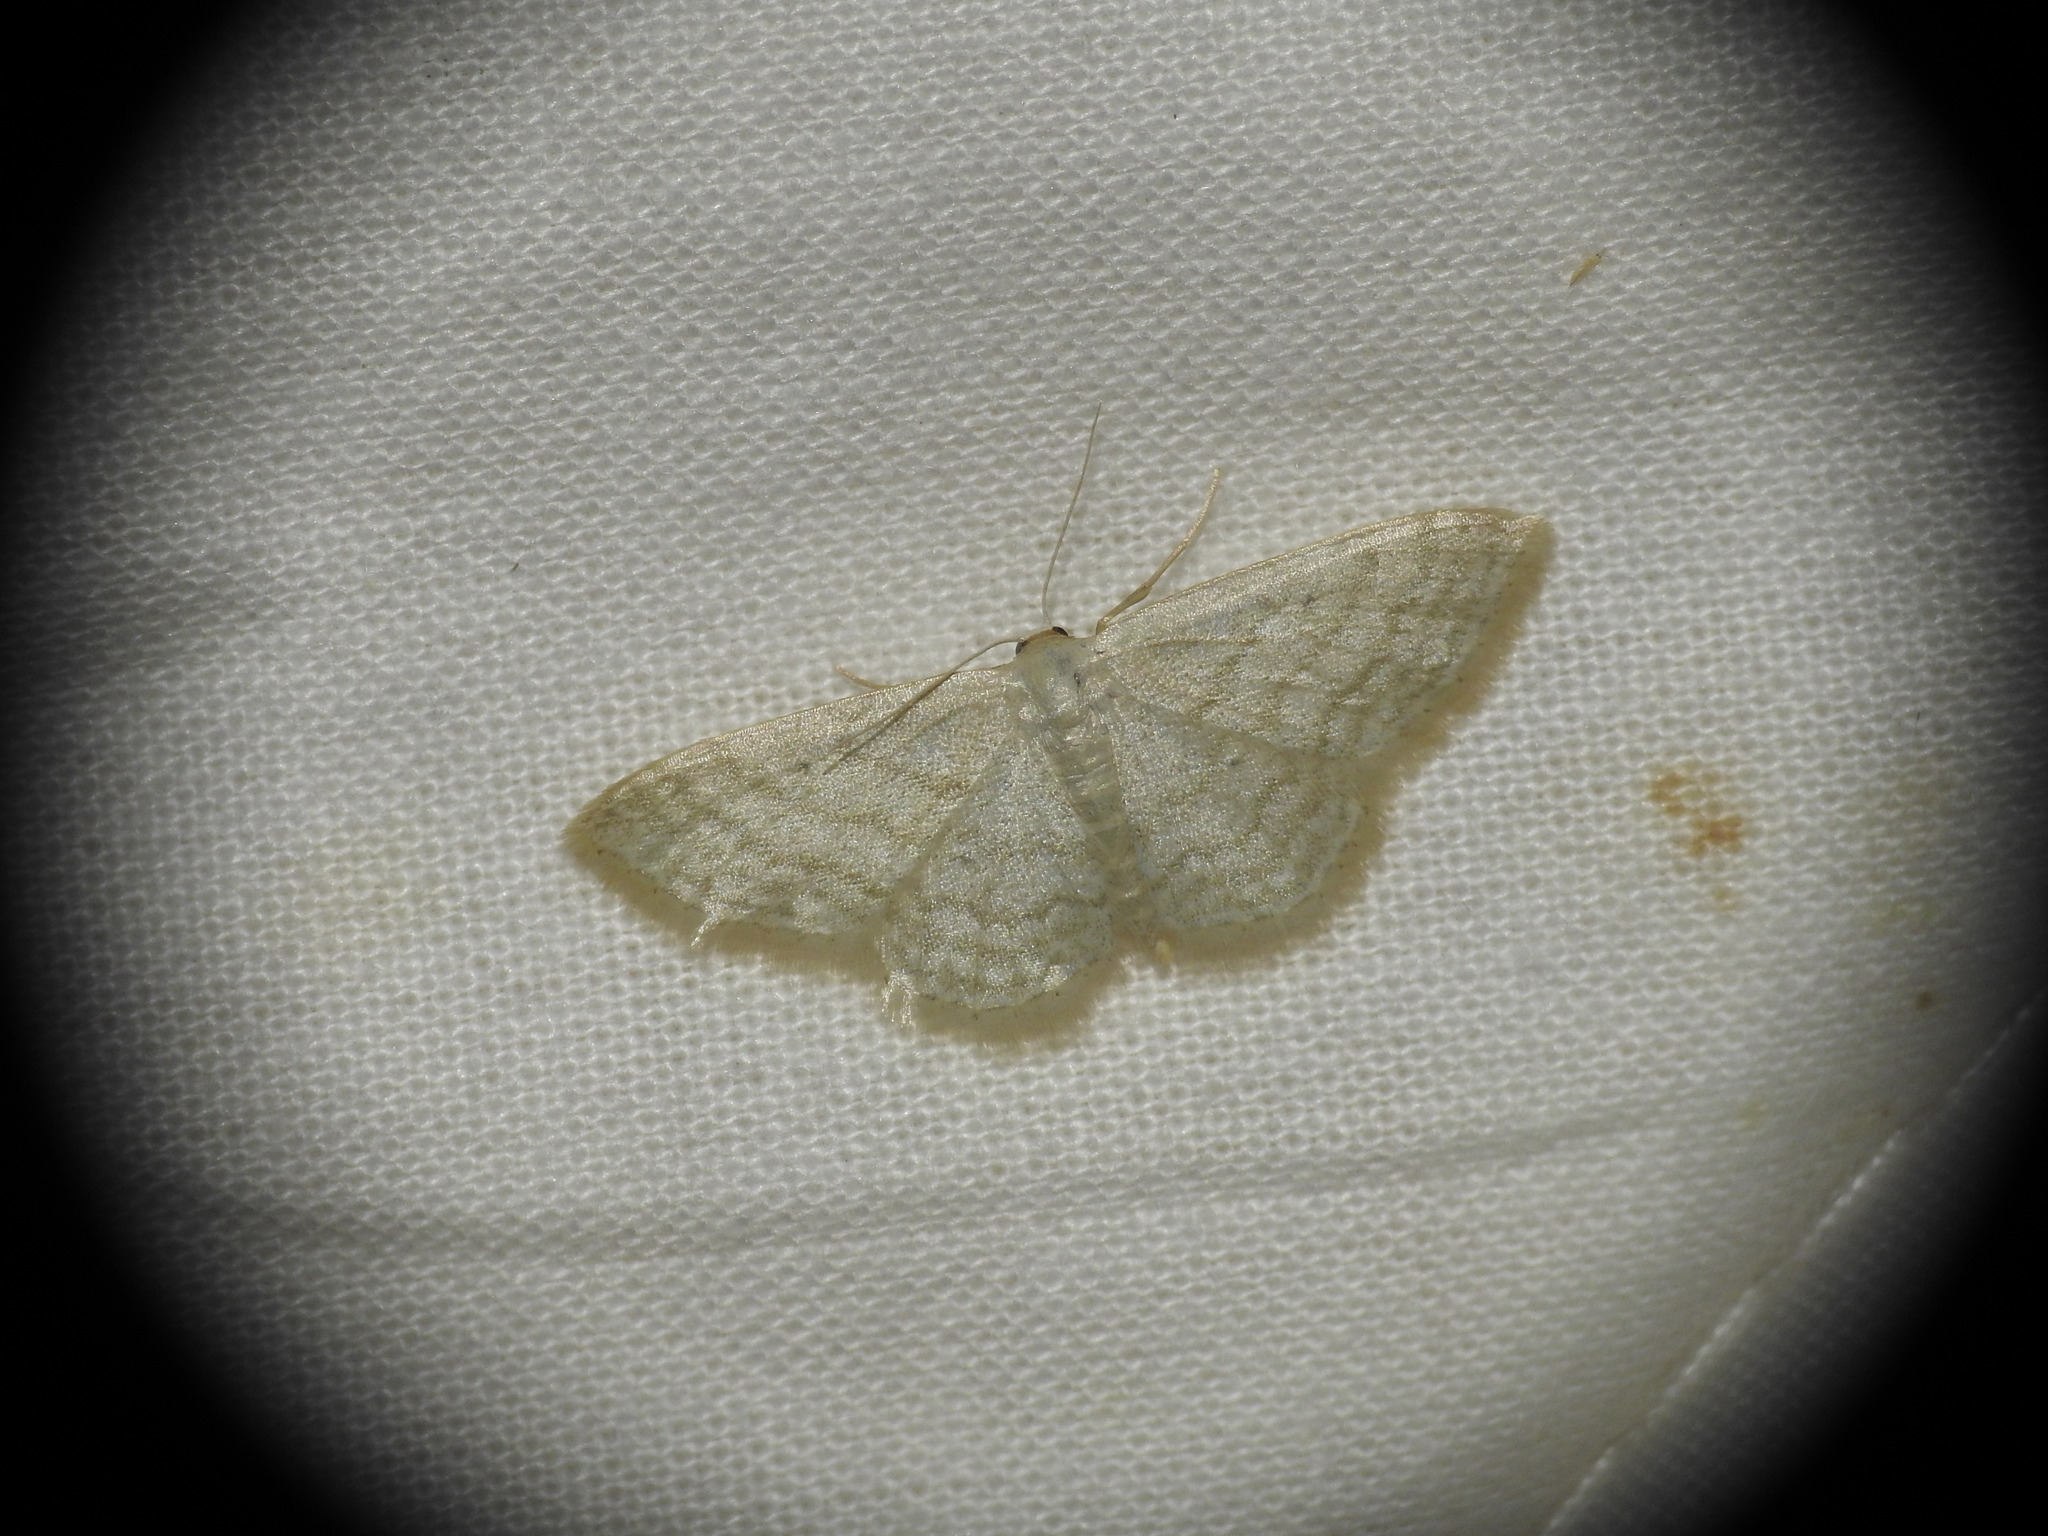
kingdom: Animalia
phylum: Arthropoda
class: Insecta
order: Lepidoptera
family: Geometridae
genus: Idaea
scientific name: Idaea subsericeata
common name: Satin wave
